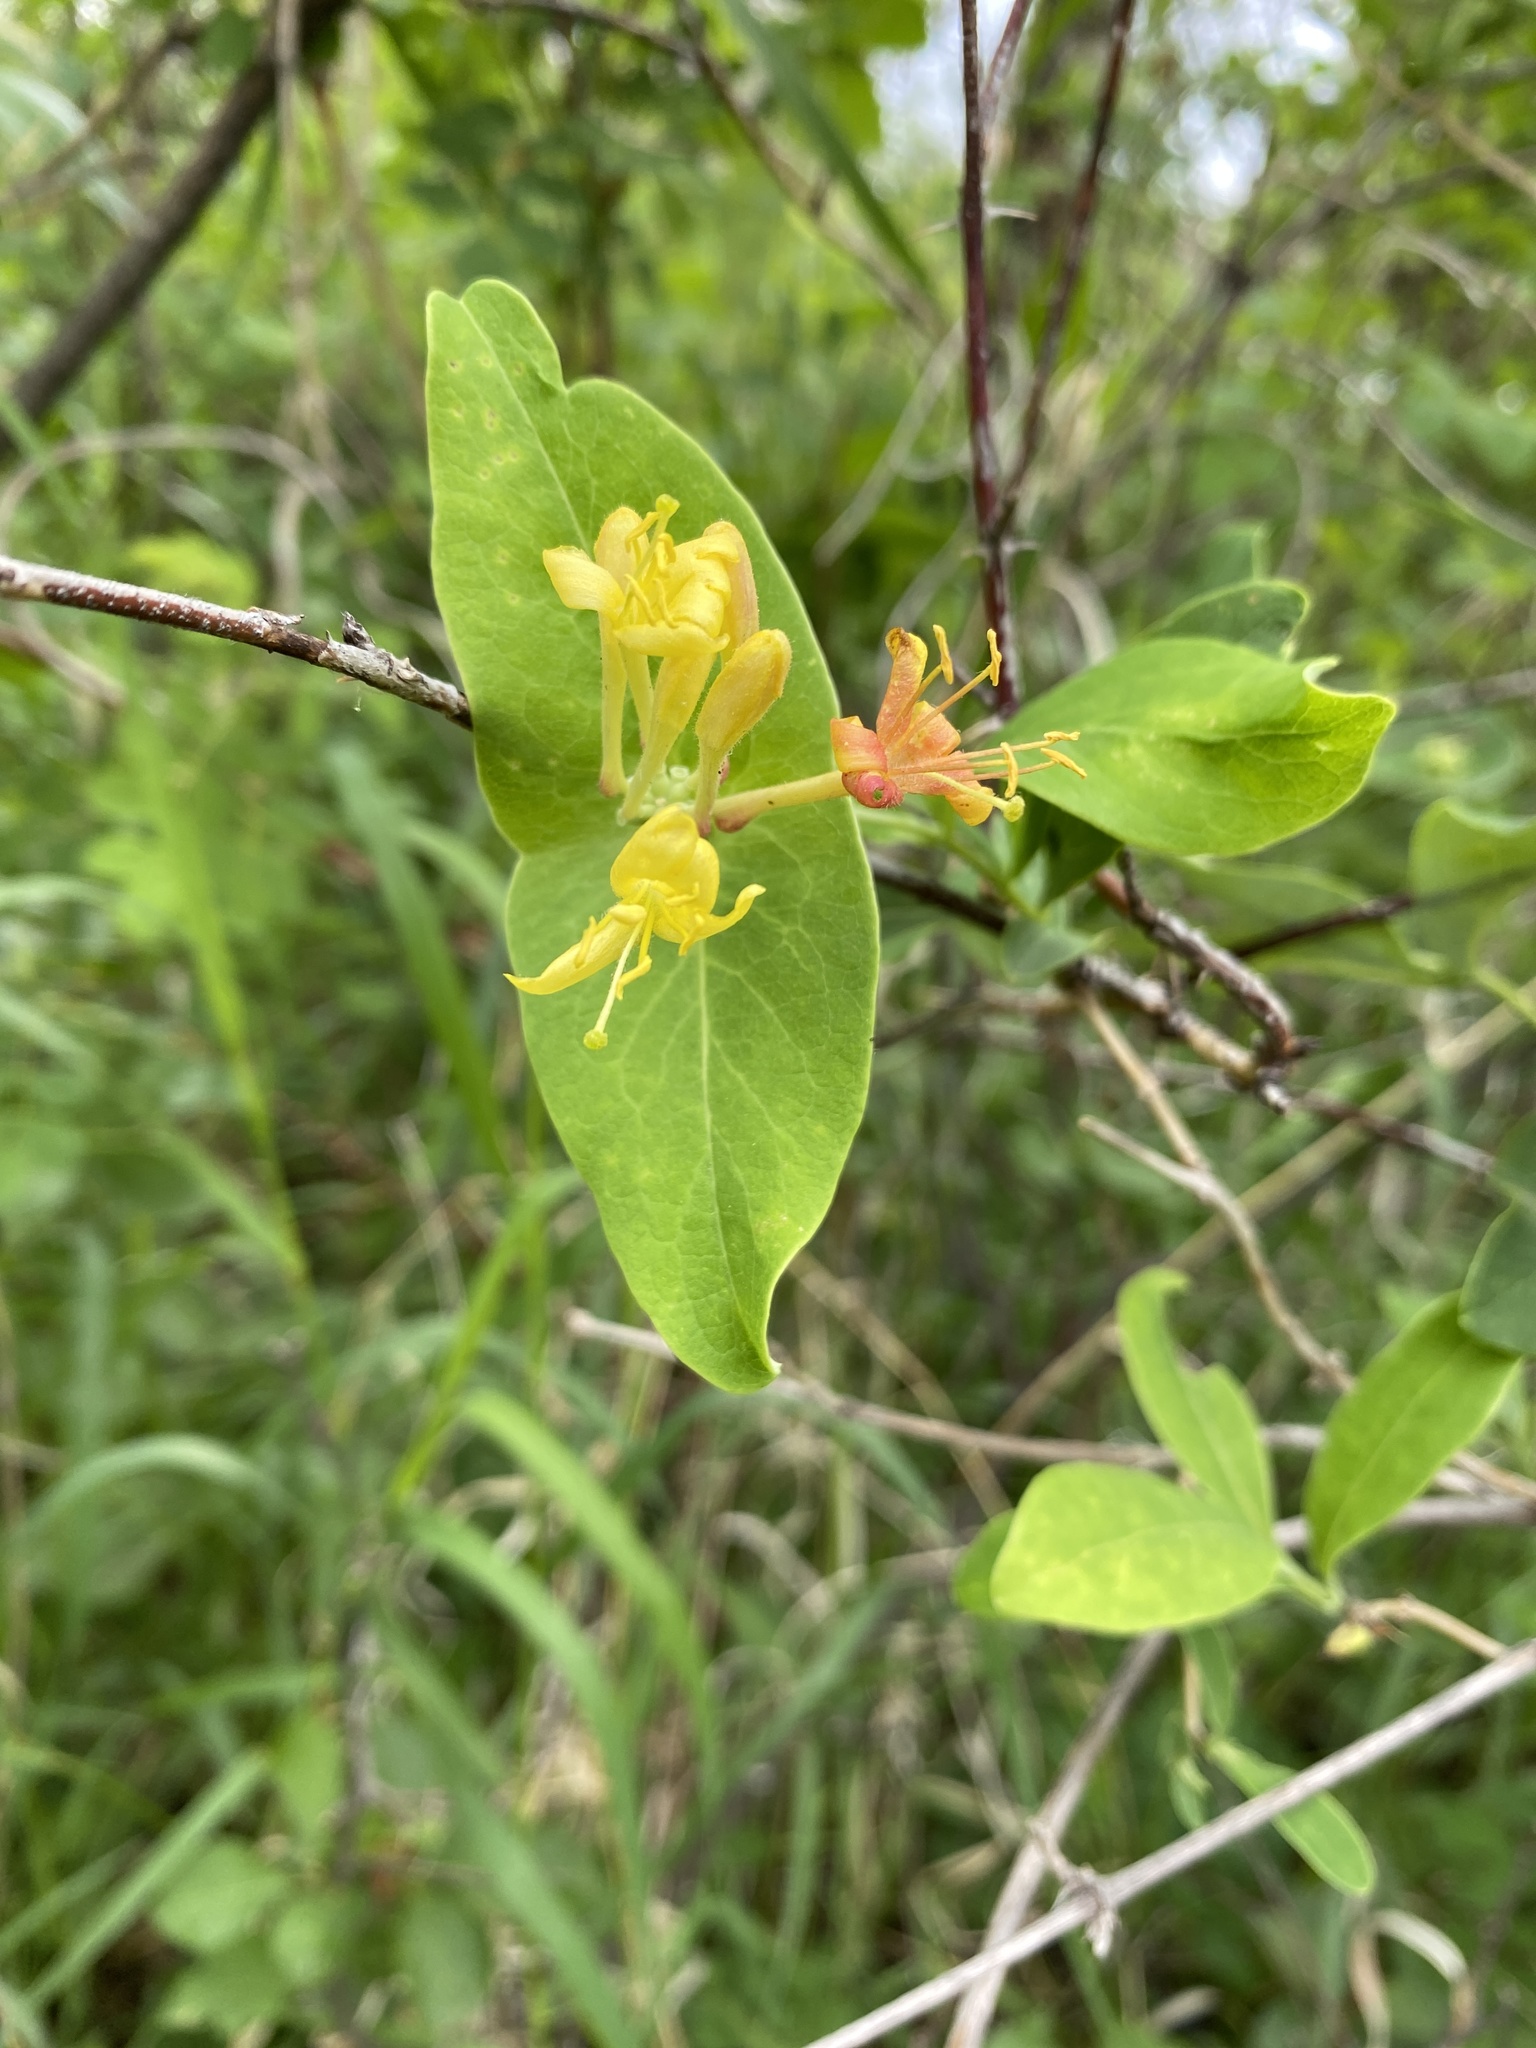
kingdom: Plantae
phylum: Tracheophyta
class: Magnoliopsida
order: Dipsacales
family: Caprifoliaceae
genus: Lonicera
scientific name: Lonicera dioica
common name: Limber honeysuckle
